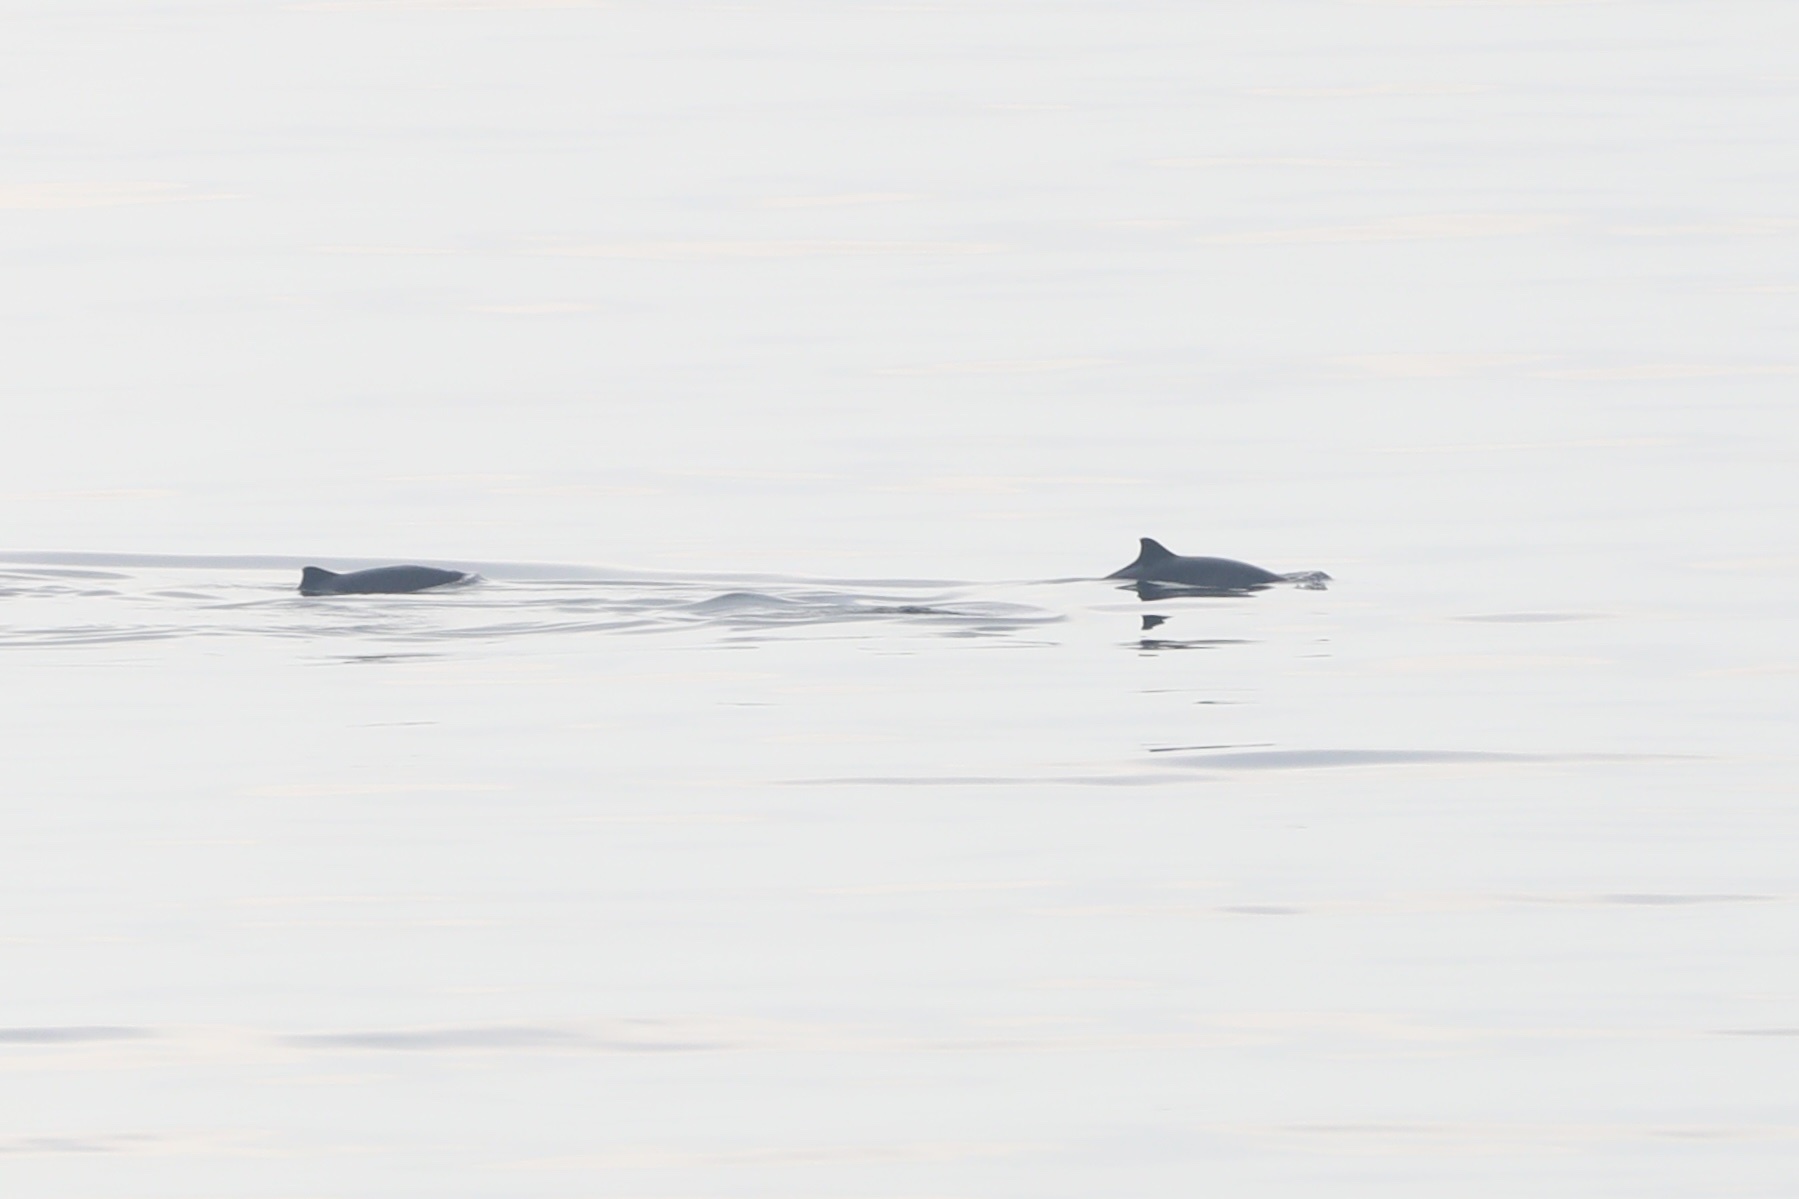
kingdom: Animalia
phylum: Chordata
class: Mammalia
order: Cetacea
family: Phocoenidae
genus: Phocoena
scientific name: Phocoena phocoena
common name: Harbor porpoise
